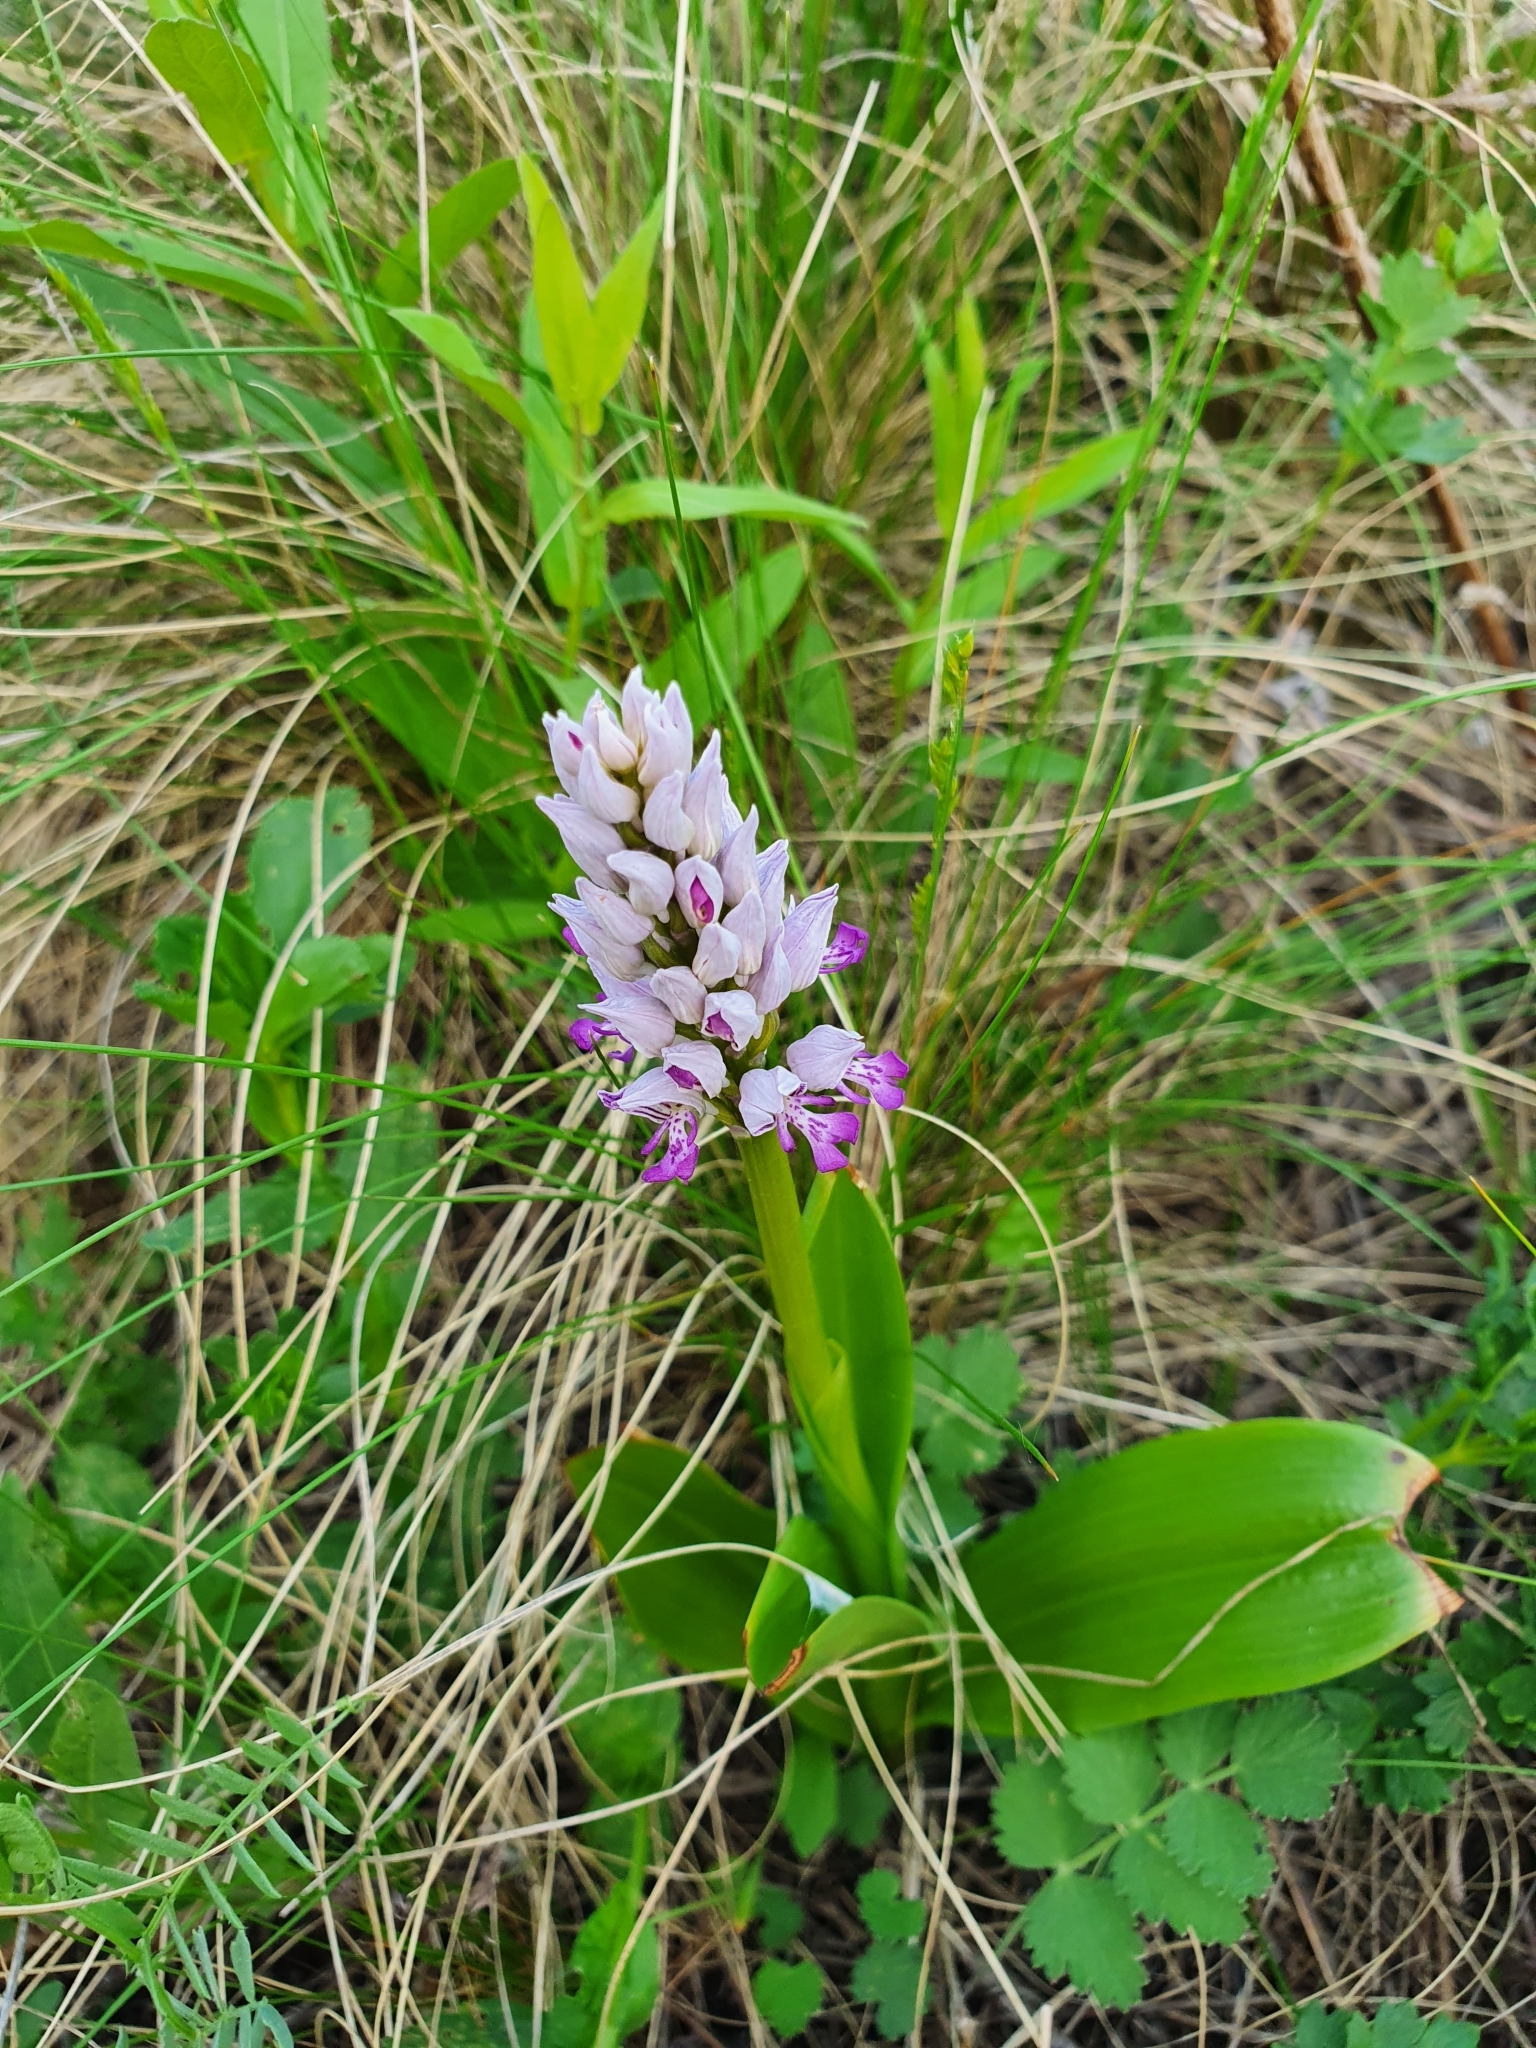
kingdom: Plantae
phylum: Tracheophyta
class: Liliopsida
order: Asparagales
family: Orchidaceae
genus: Orchis
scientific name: Orchis militaris
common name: Military orchid
